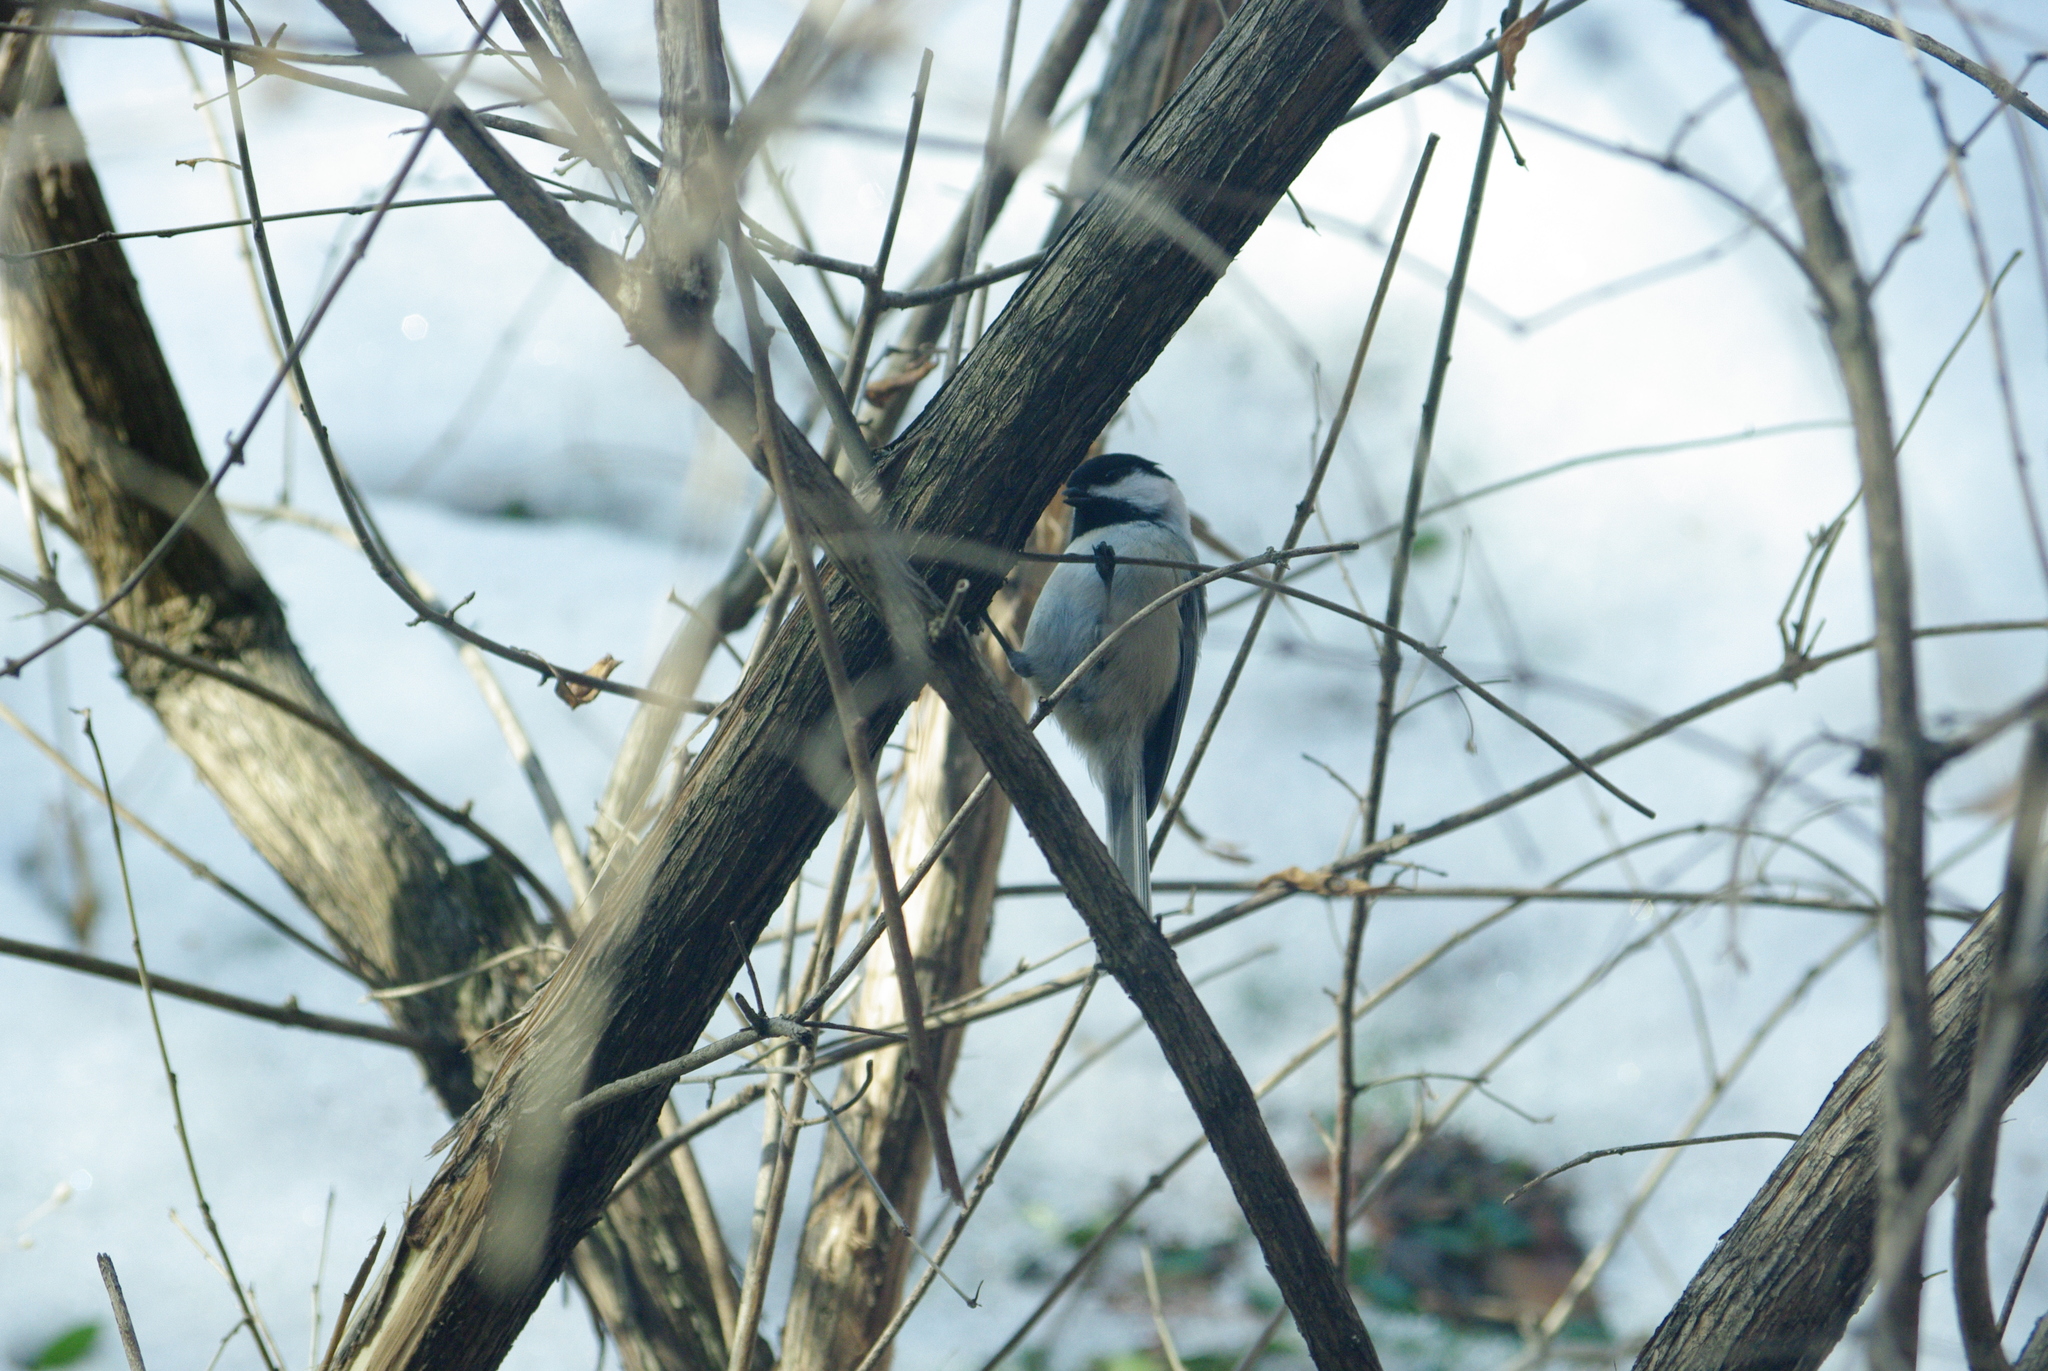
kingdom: Animalia
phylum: Chordata
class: Aves
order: Passeriformes
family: Paridae
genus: Poecile
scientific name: Poecile atricapillus
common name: Black-capped chickadee
